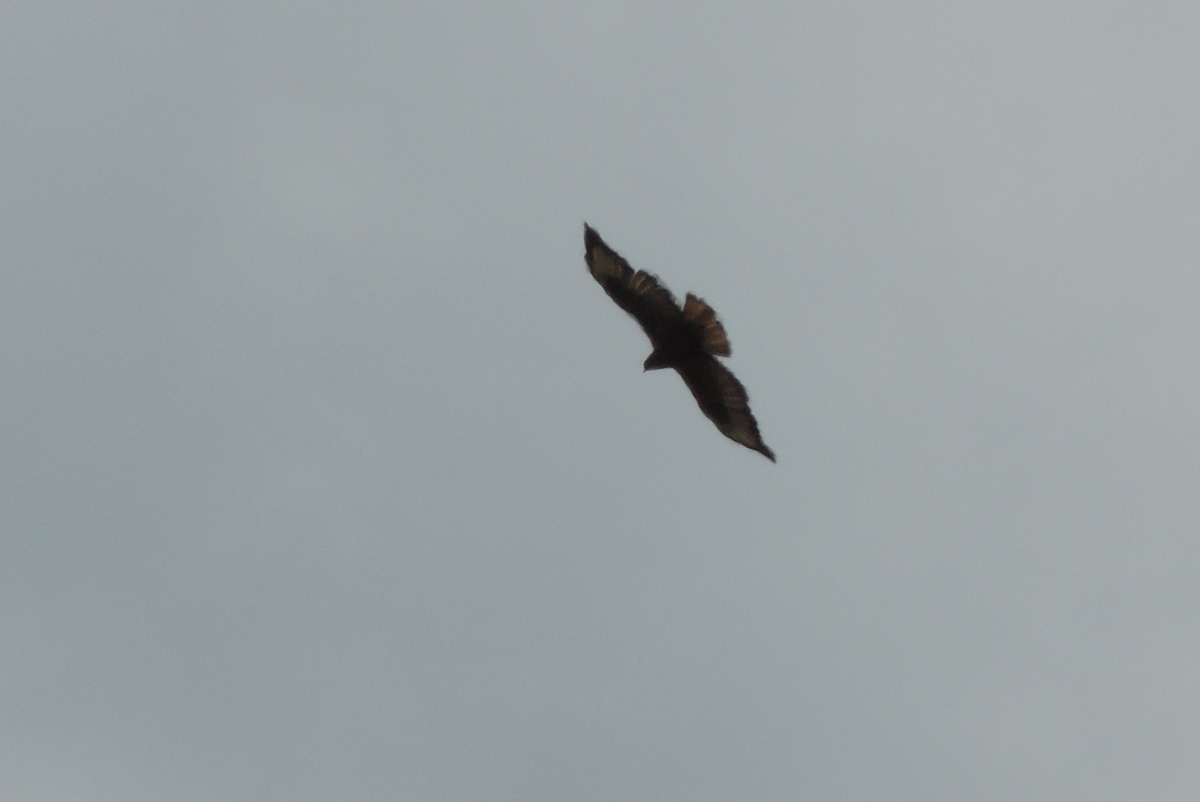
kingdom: Animalia
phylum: Chordata
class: Aves
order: Accipitriformes
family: Accipitridae
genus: Buteo
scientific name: Buteo rufinus
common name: Long-legged buzzard
